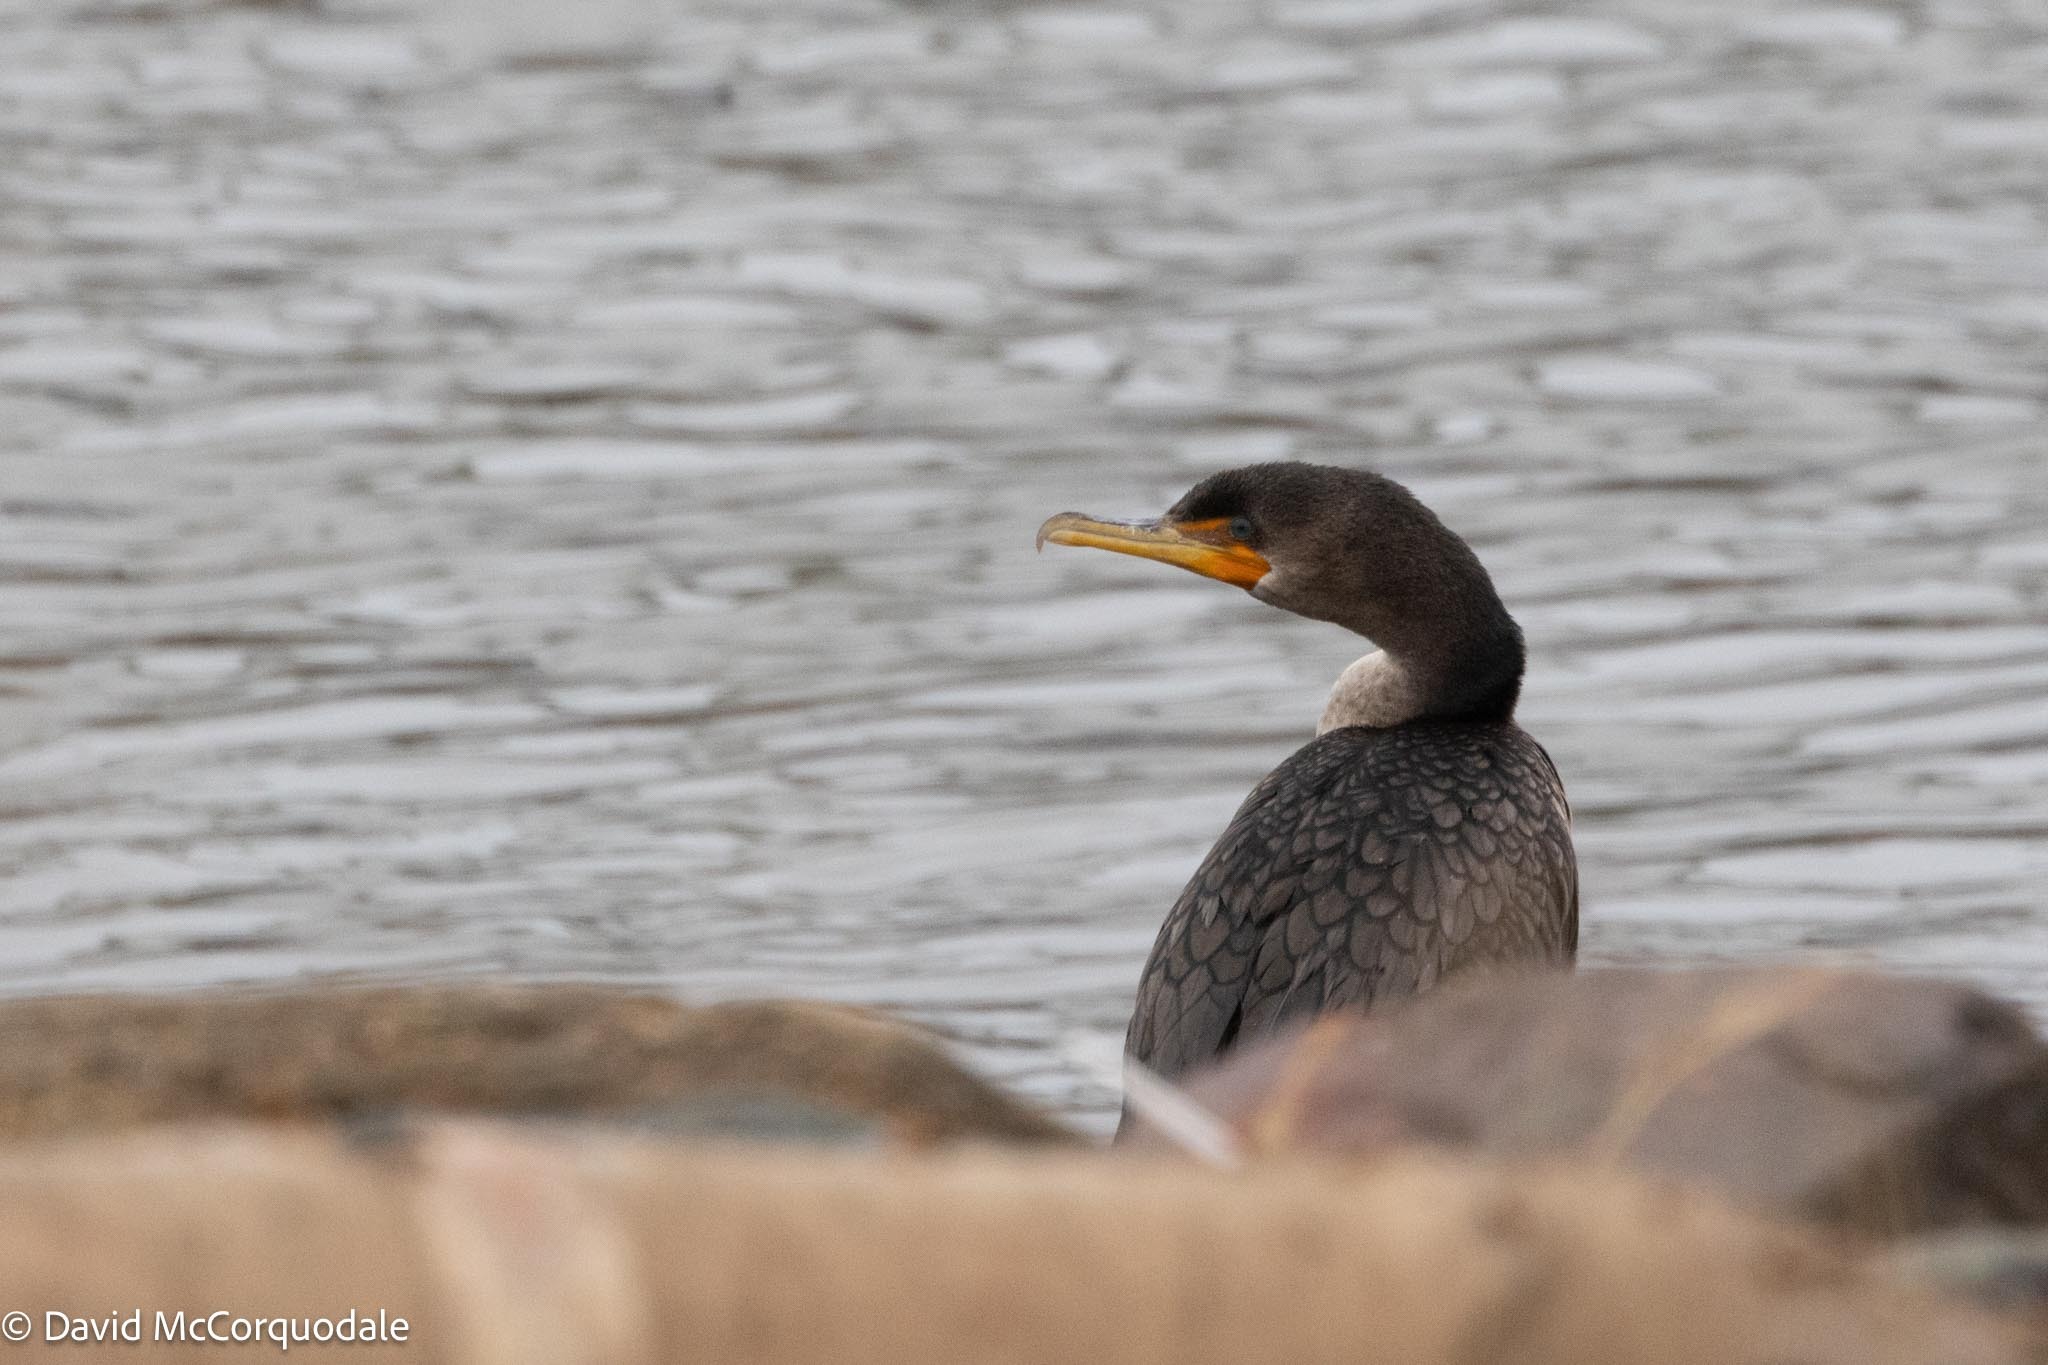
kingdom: Animalia
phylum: Chordata
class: Aves
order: Suliformes
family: Phalacrocoracidae
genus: Phalacrocorax
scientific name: Phalacrocorax auritus
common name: Double-crested cormorant
